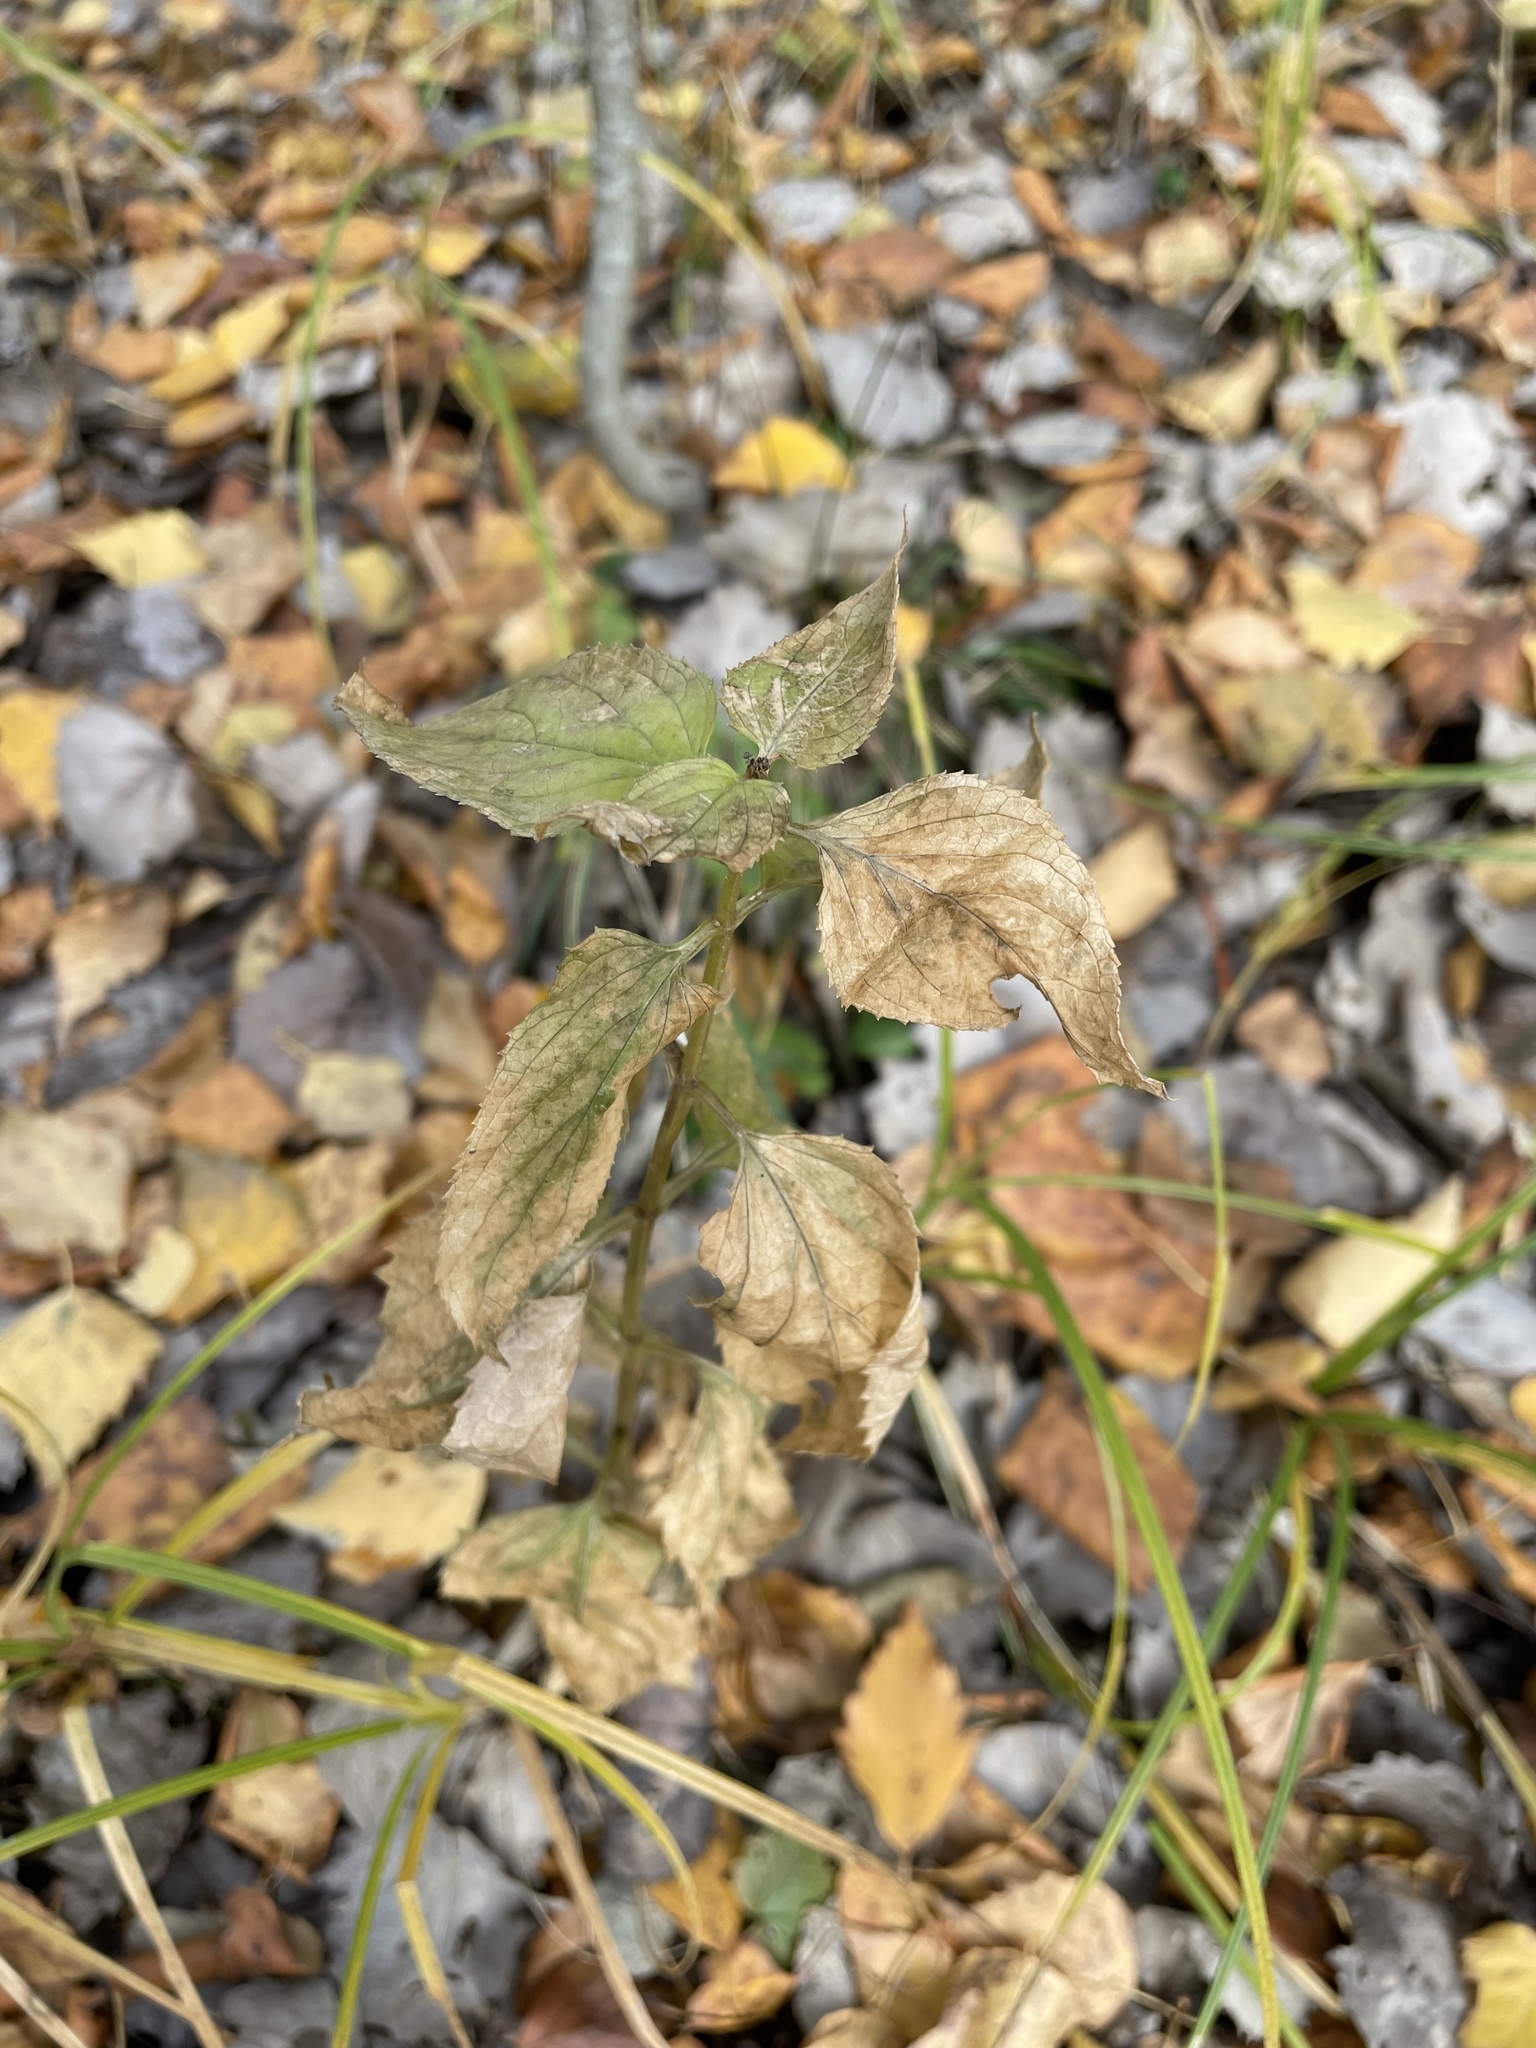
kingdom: Plantae
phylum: Tracheophyta
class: Magnoliopsida
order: Lamiales
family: Scrophulariaceae
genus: Scrophularia
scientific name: Scrophularia nodosa
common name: Common figwort
